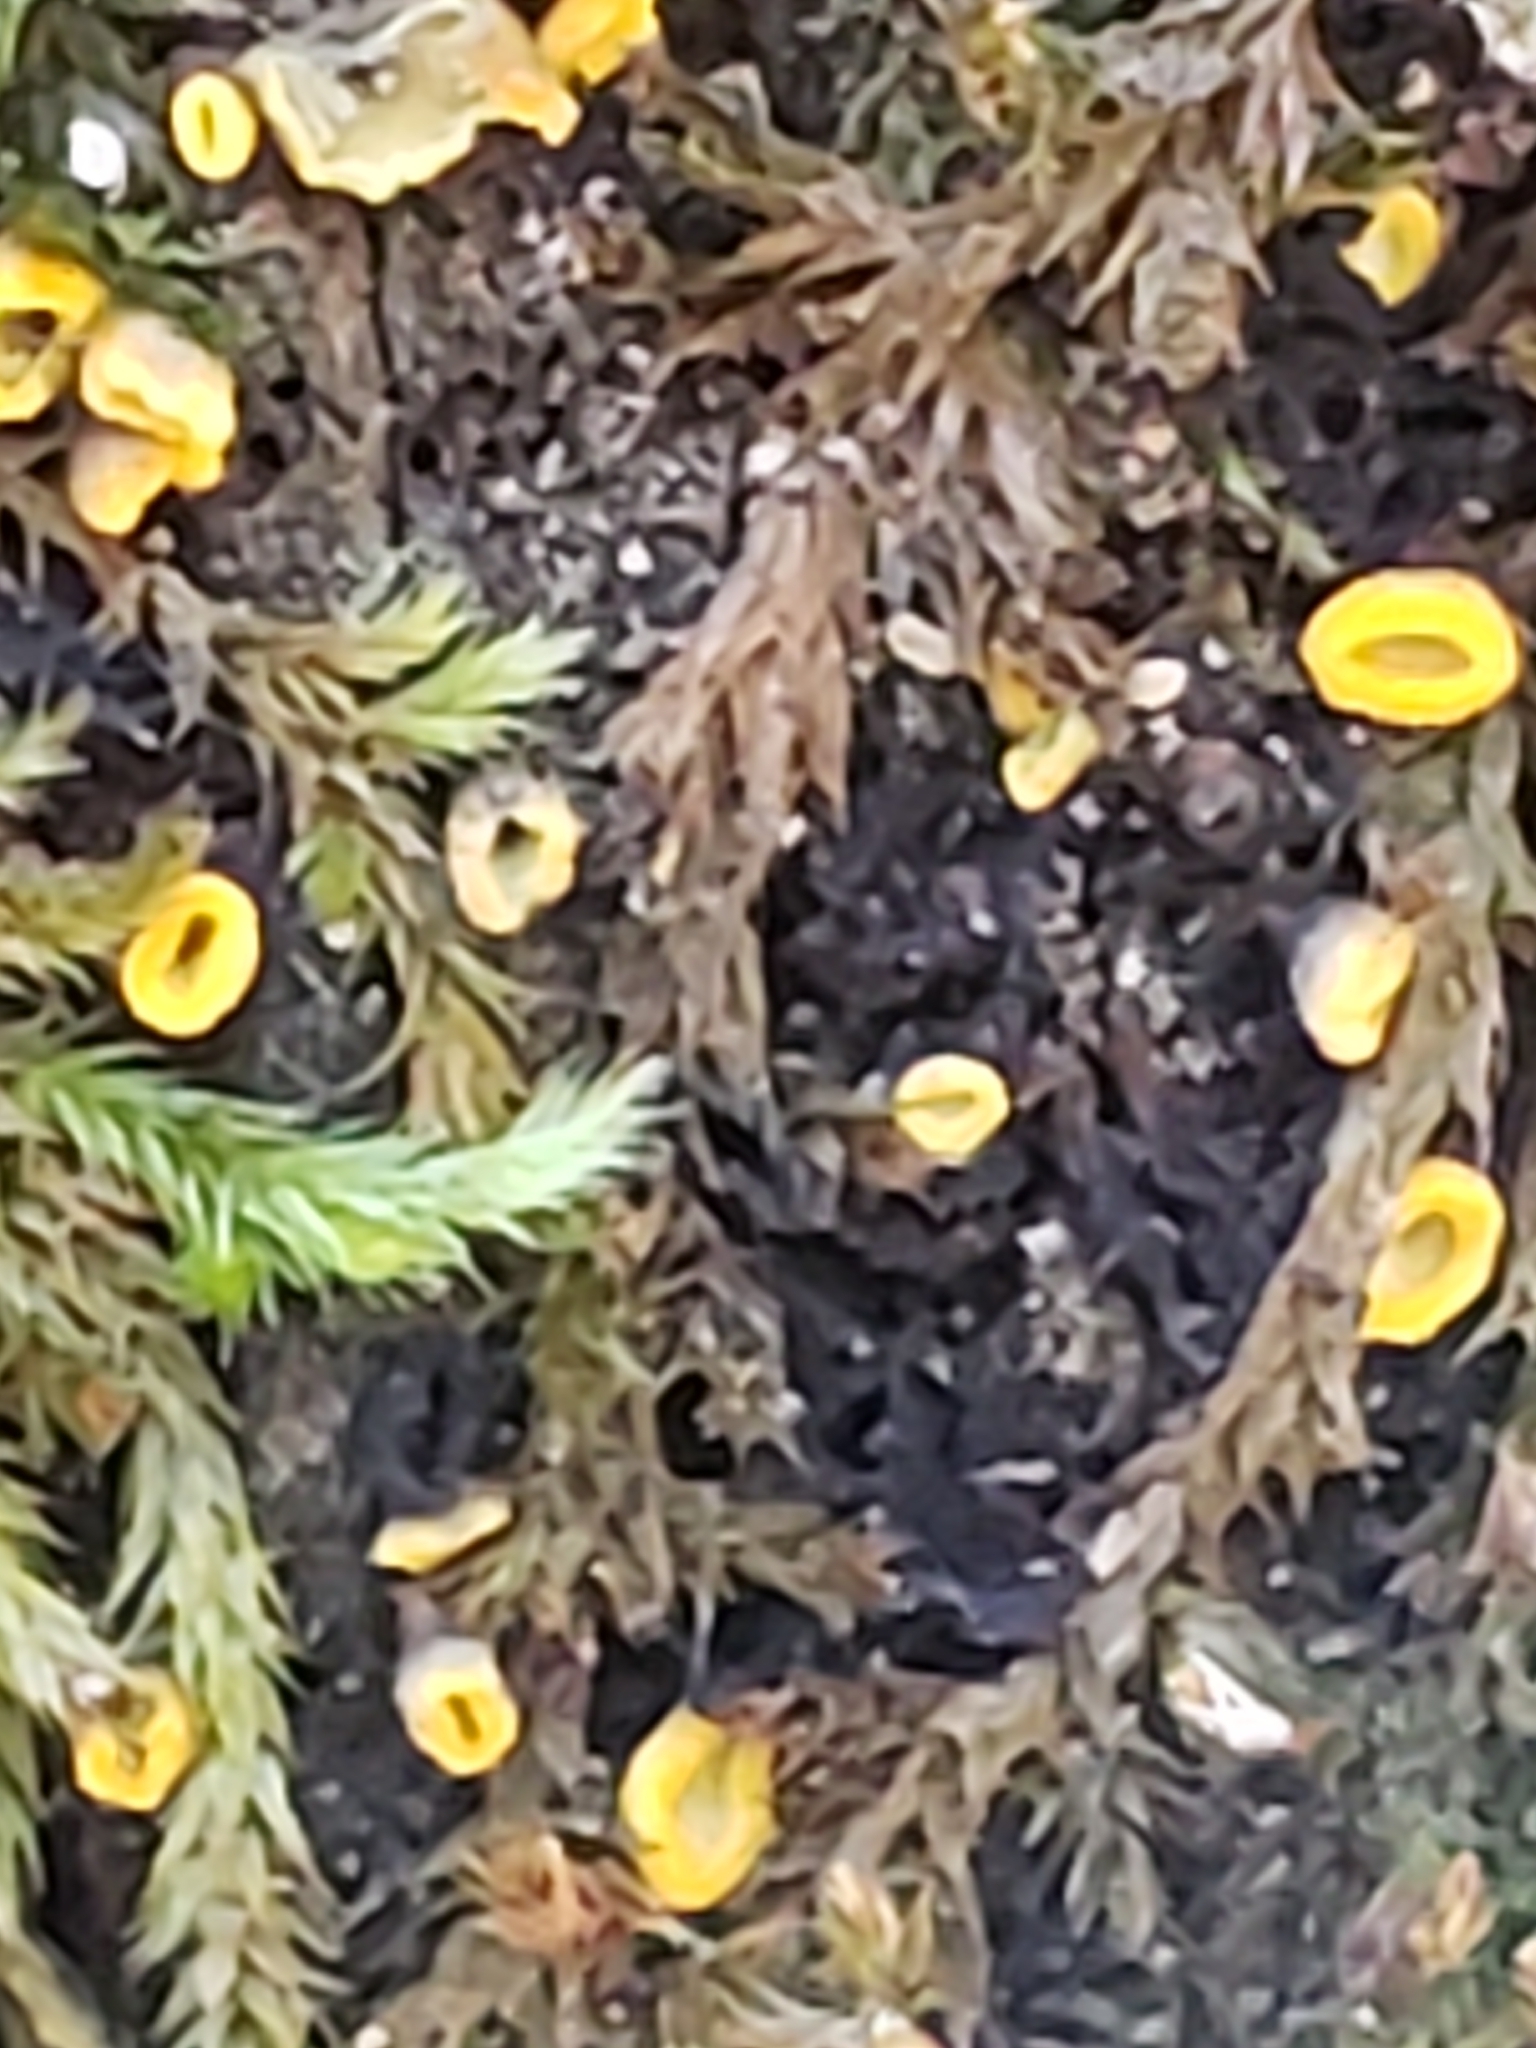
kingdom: Fungi
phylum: Ascomycota
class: Leotiomycetes
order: Helotiales
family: Chlorospleniaceae
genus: Chlorosplenium
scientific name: Chlorosplenium chlora
